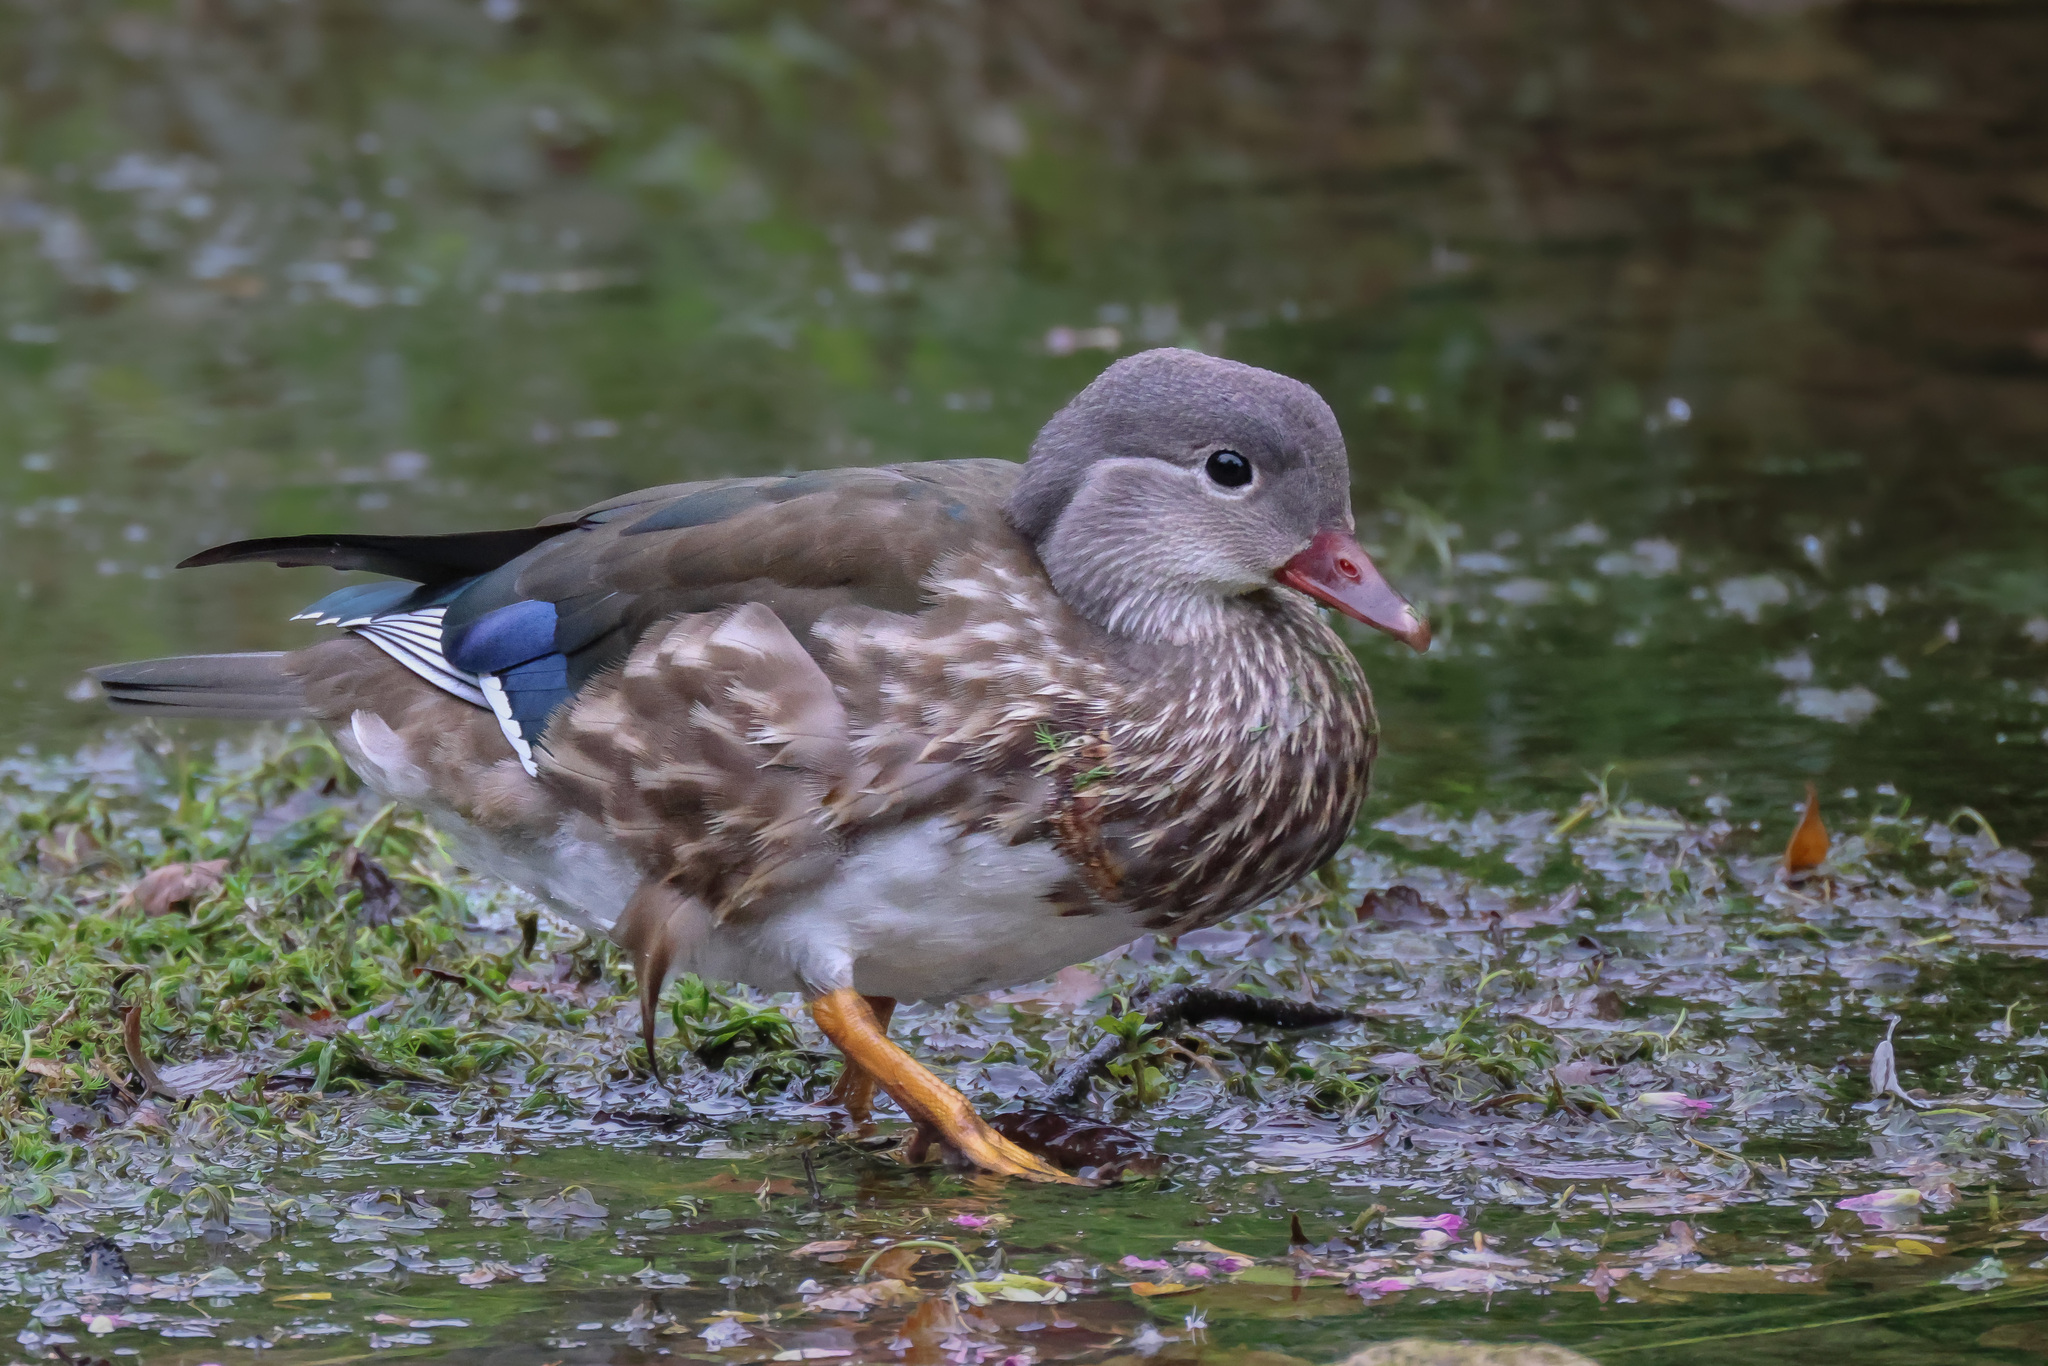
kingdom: Animalia
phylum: Chordata
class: Aves
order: Anseriformes
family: Anatidae
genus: Aix
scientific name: Aix galericulata
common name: Mandarin duck
